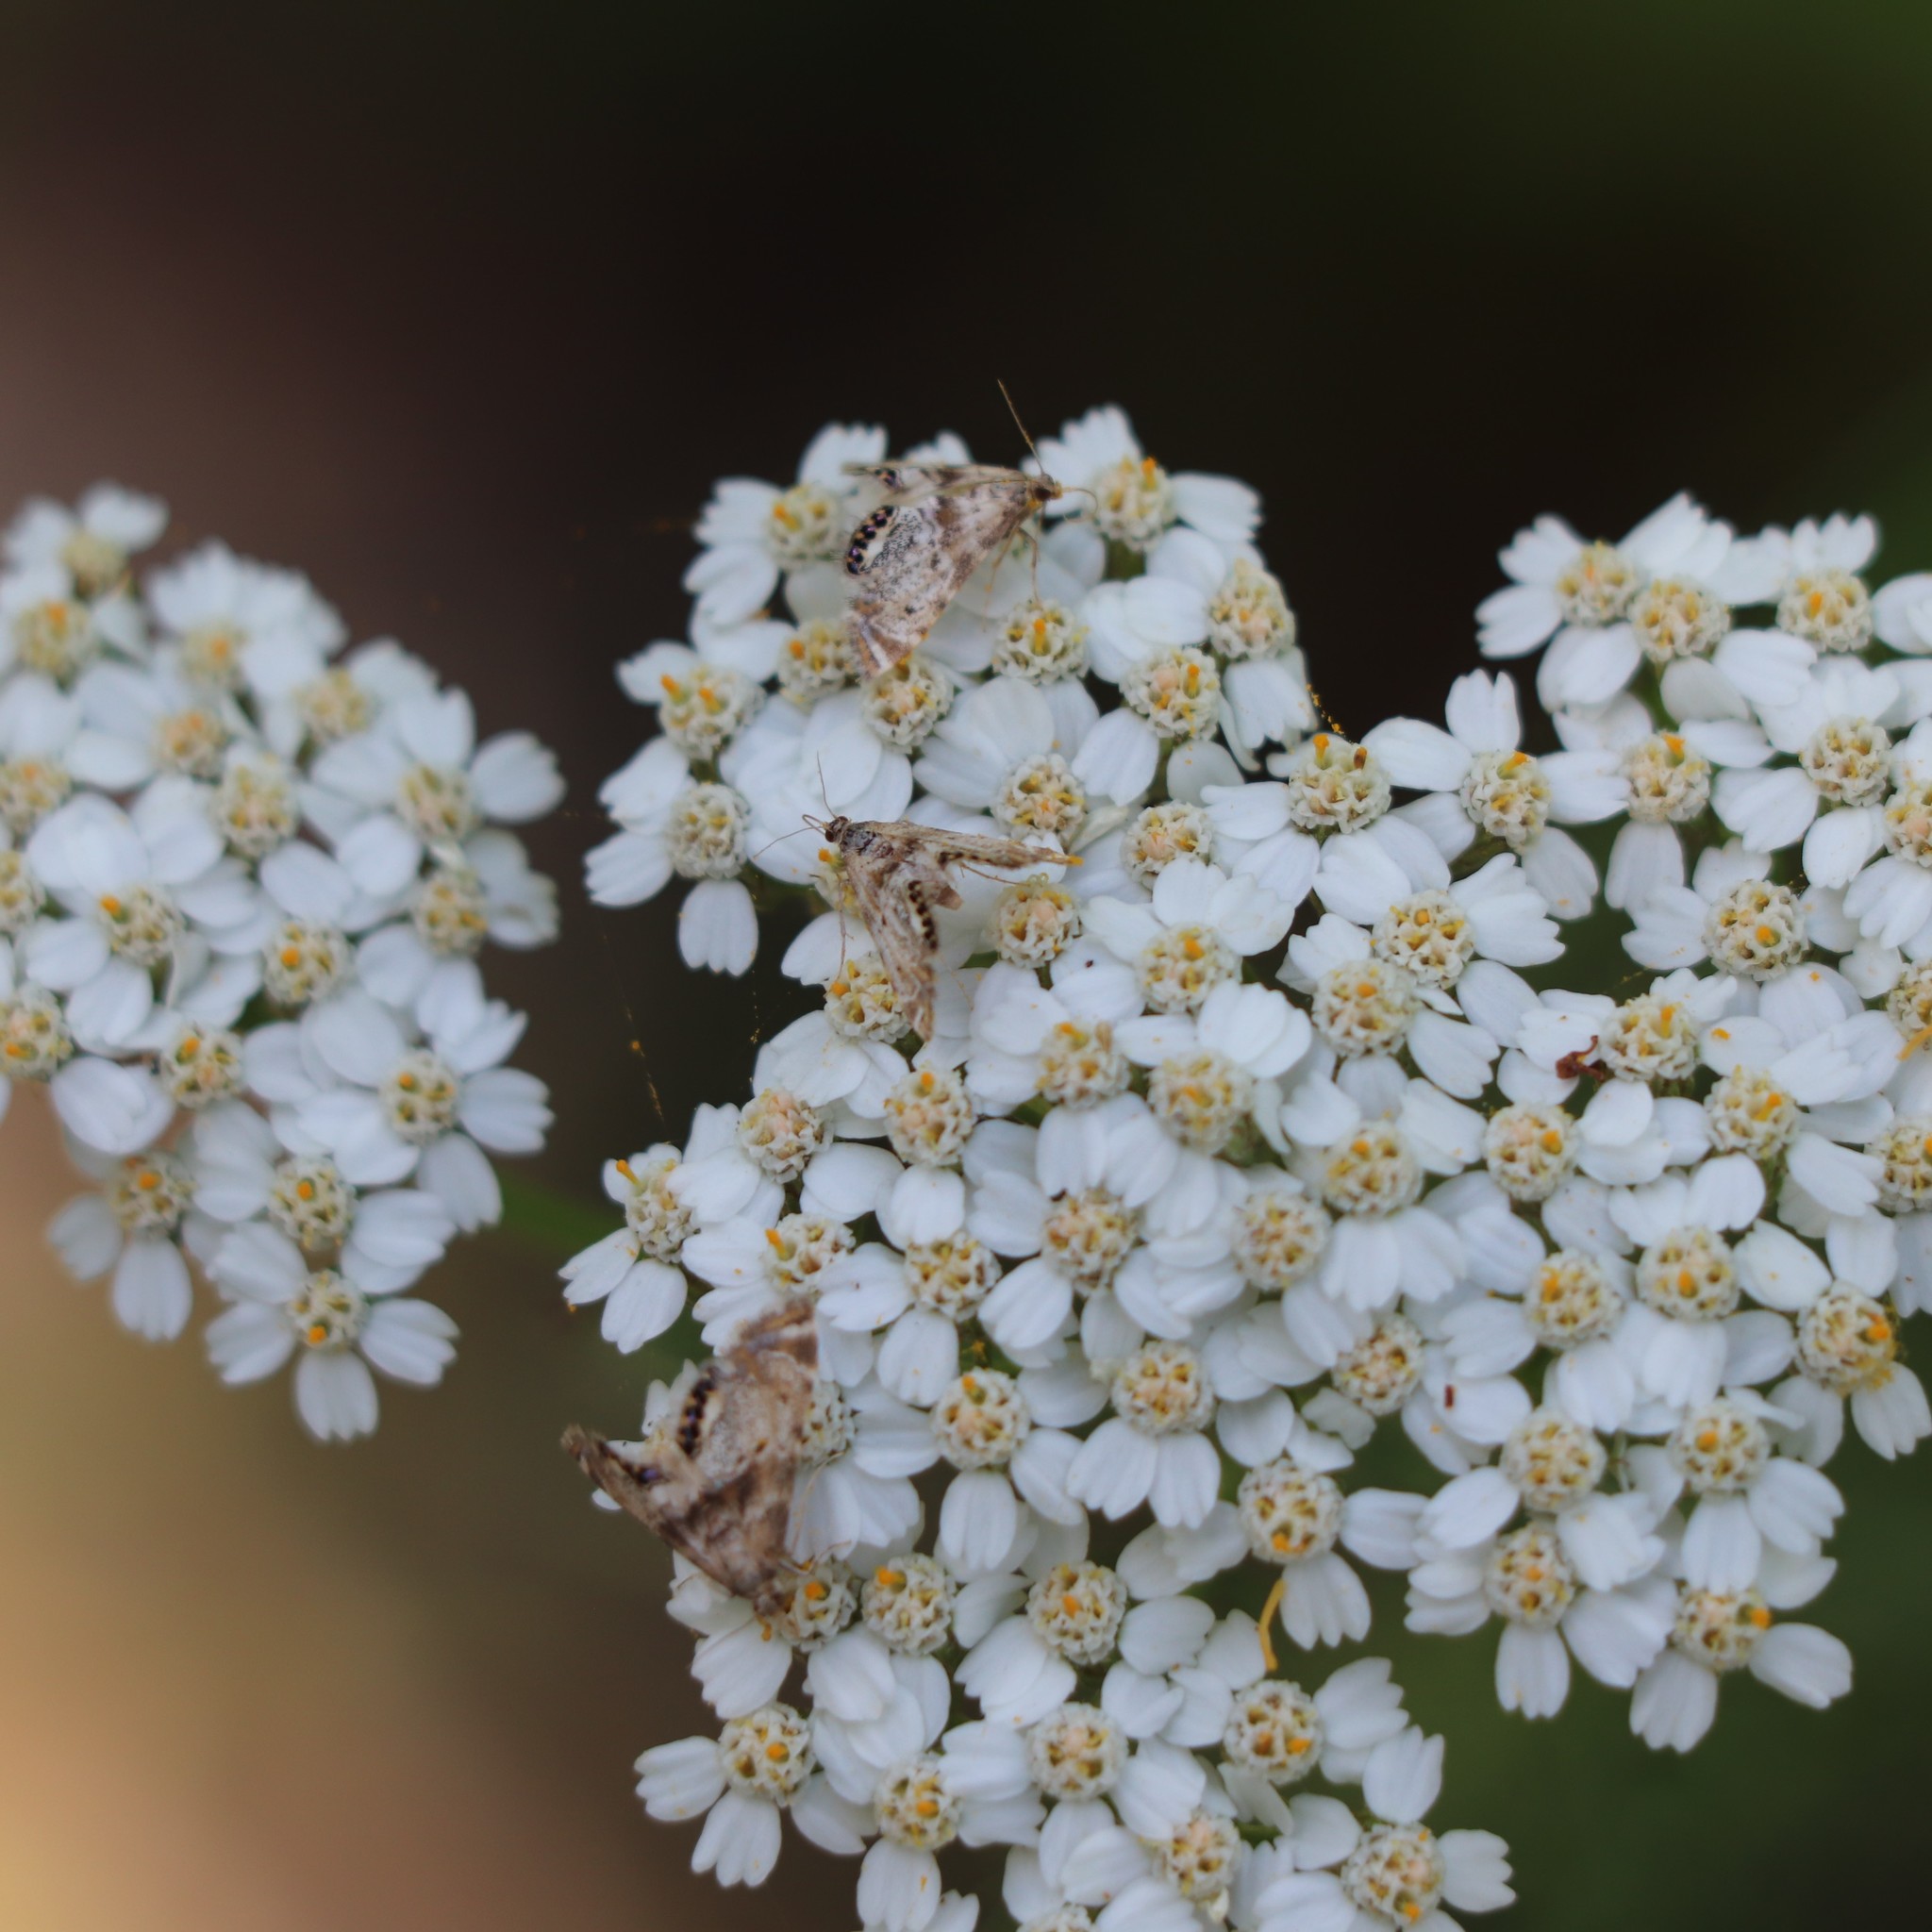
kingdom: Animalia
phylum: Arthropoda
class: Insecta
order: Lepidoptera
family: Crambidae
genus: Petrophila
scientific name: Petrophila fulicalis
